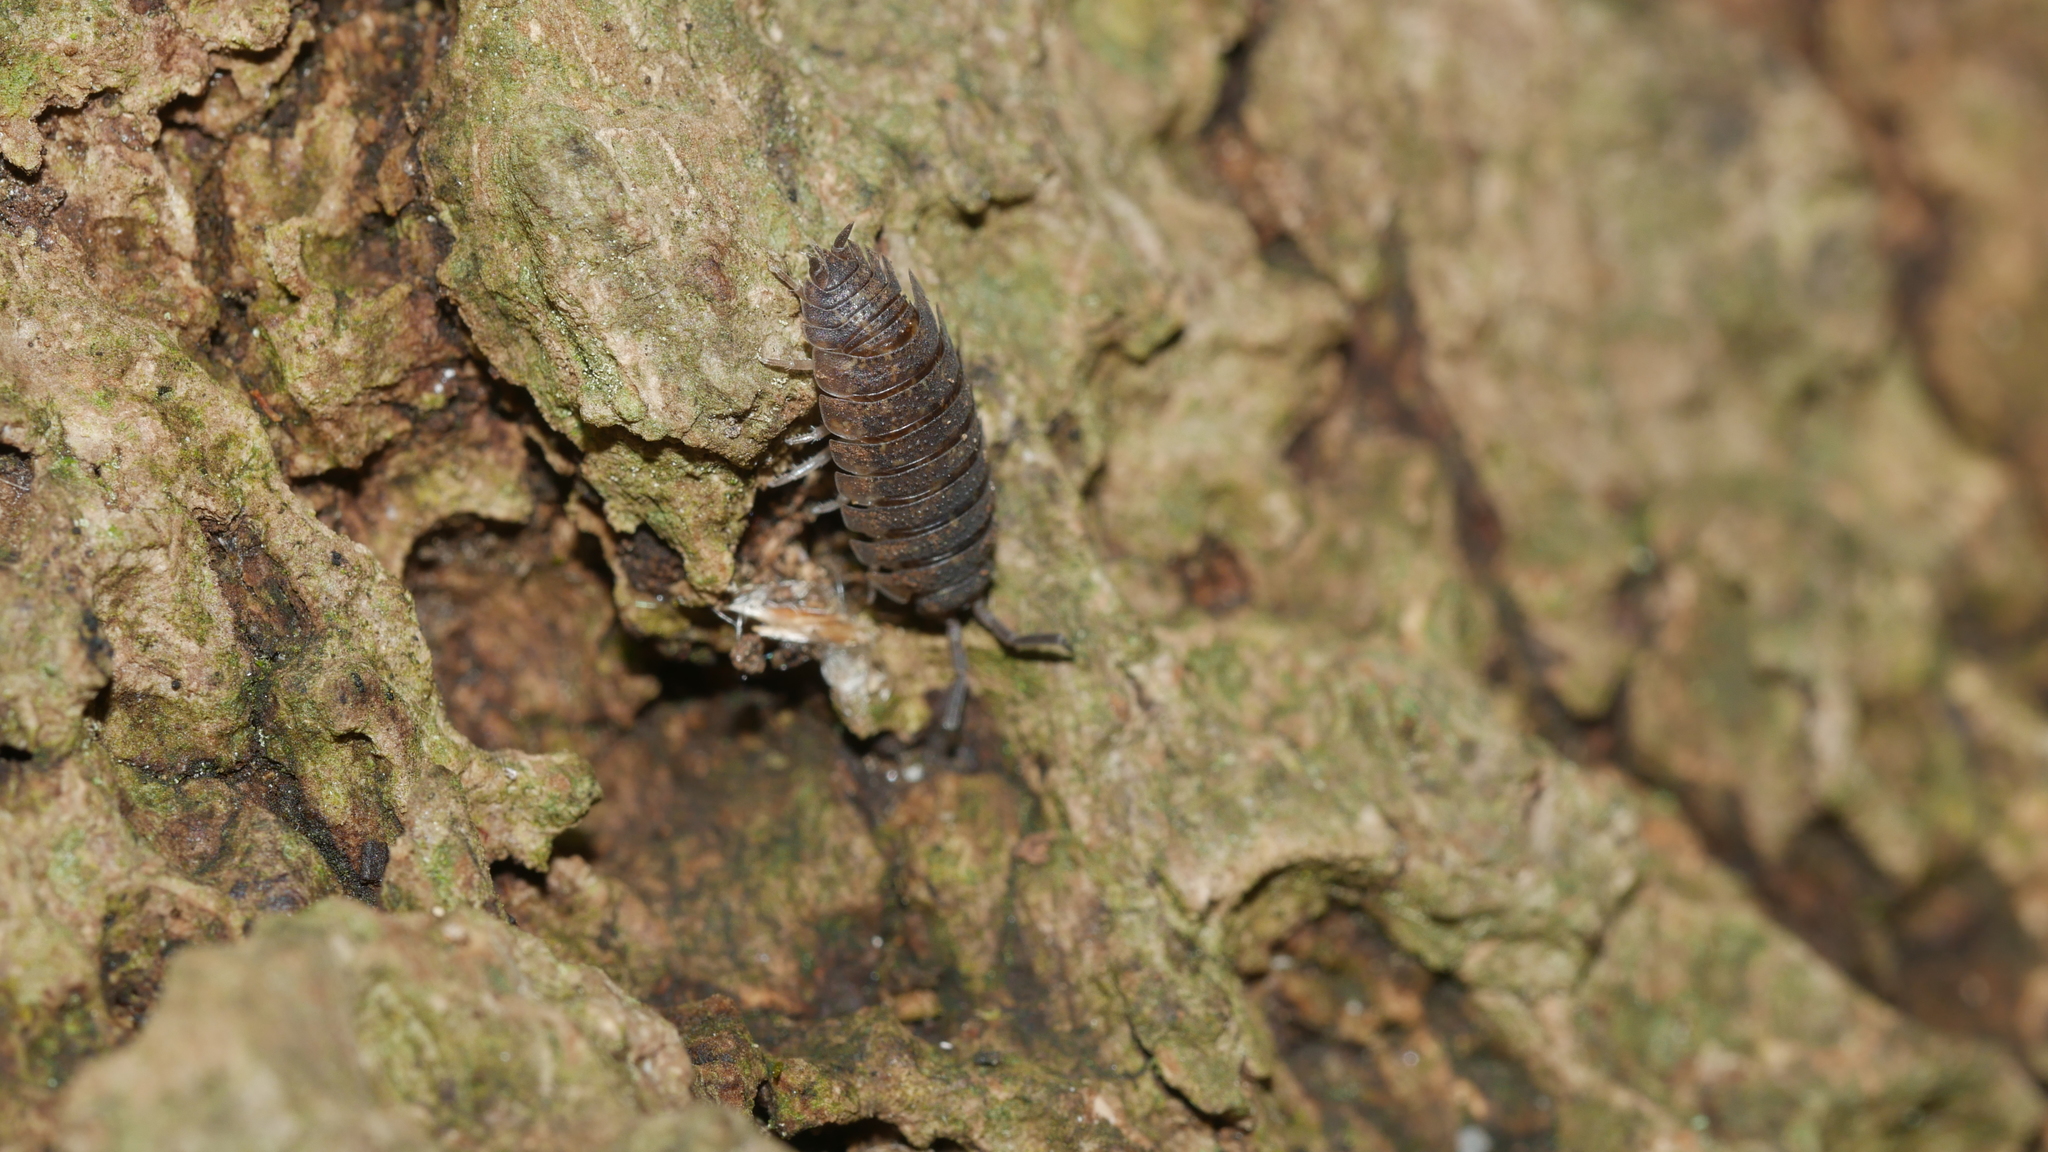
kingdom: Animalia
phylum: Arthropoda
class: Malacostraca
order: Isopoda
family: Porcellionidae
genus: Porcellio
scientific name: Porcellio scaber
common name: Common rough woodlouse
